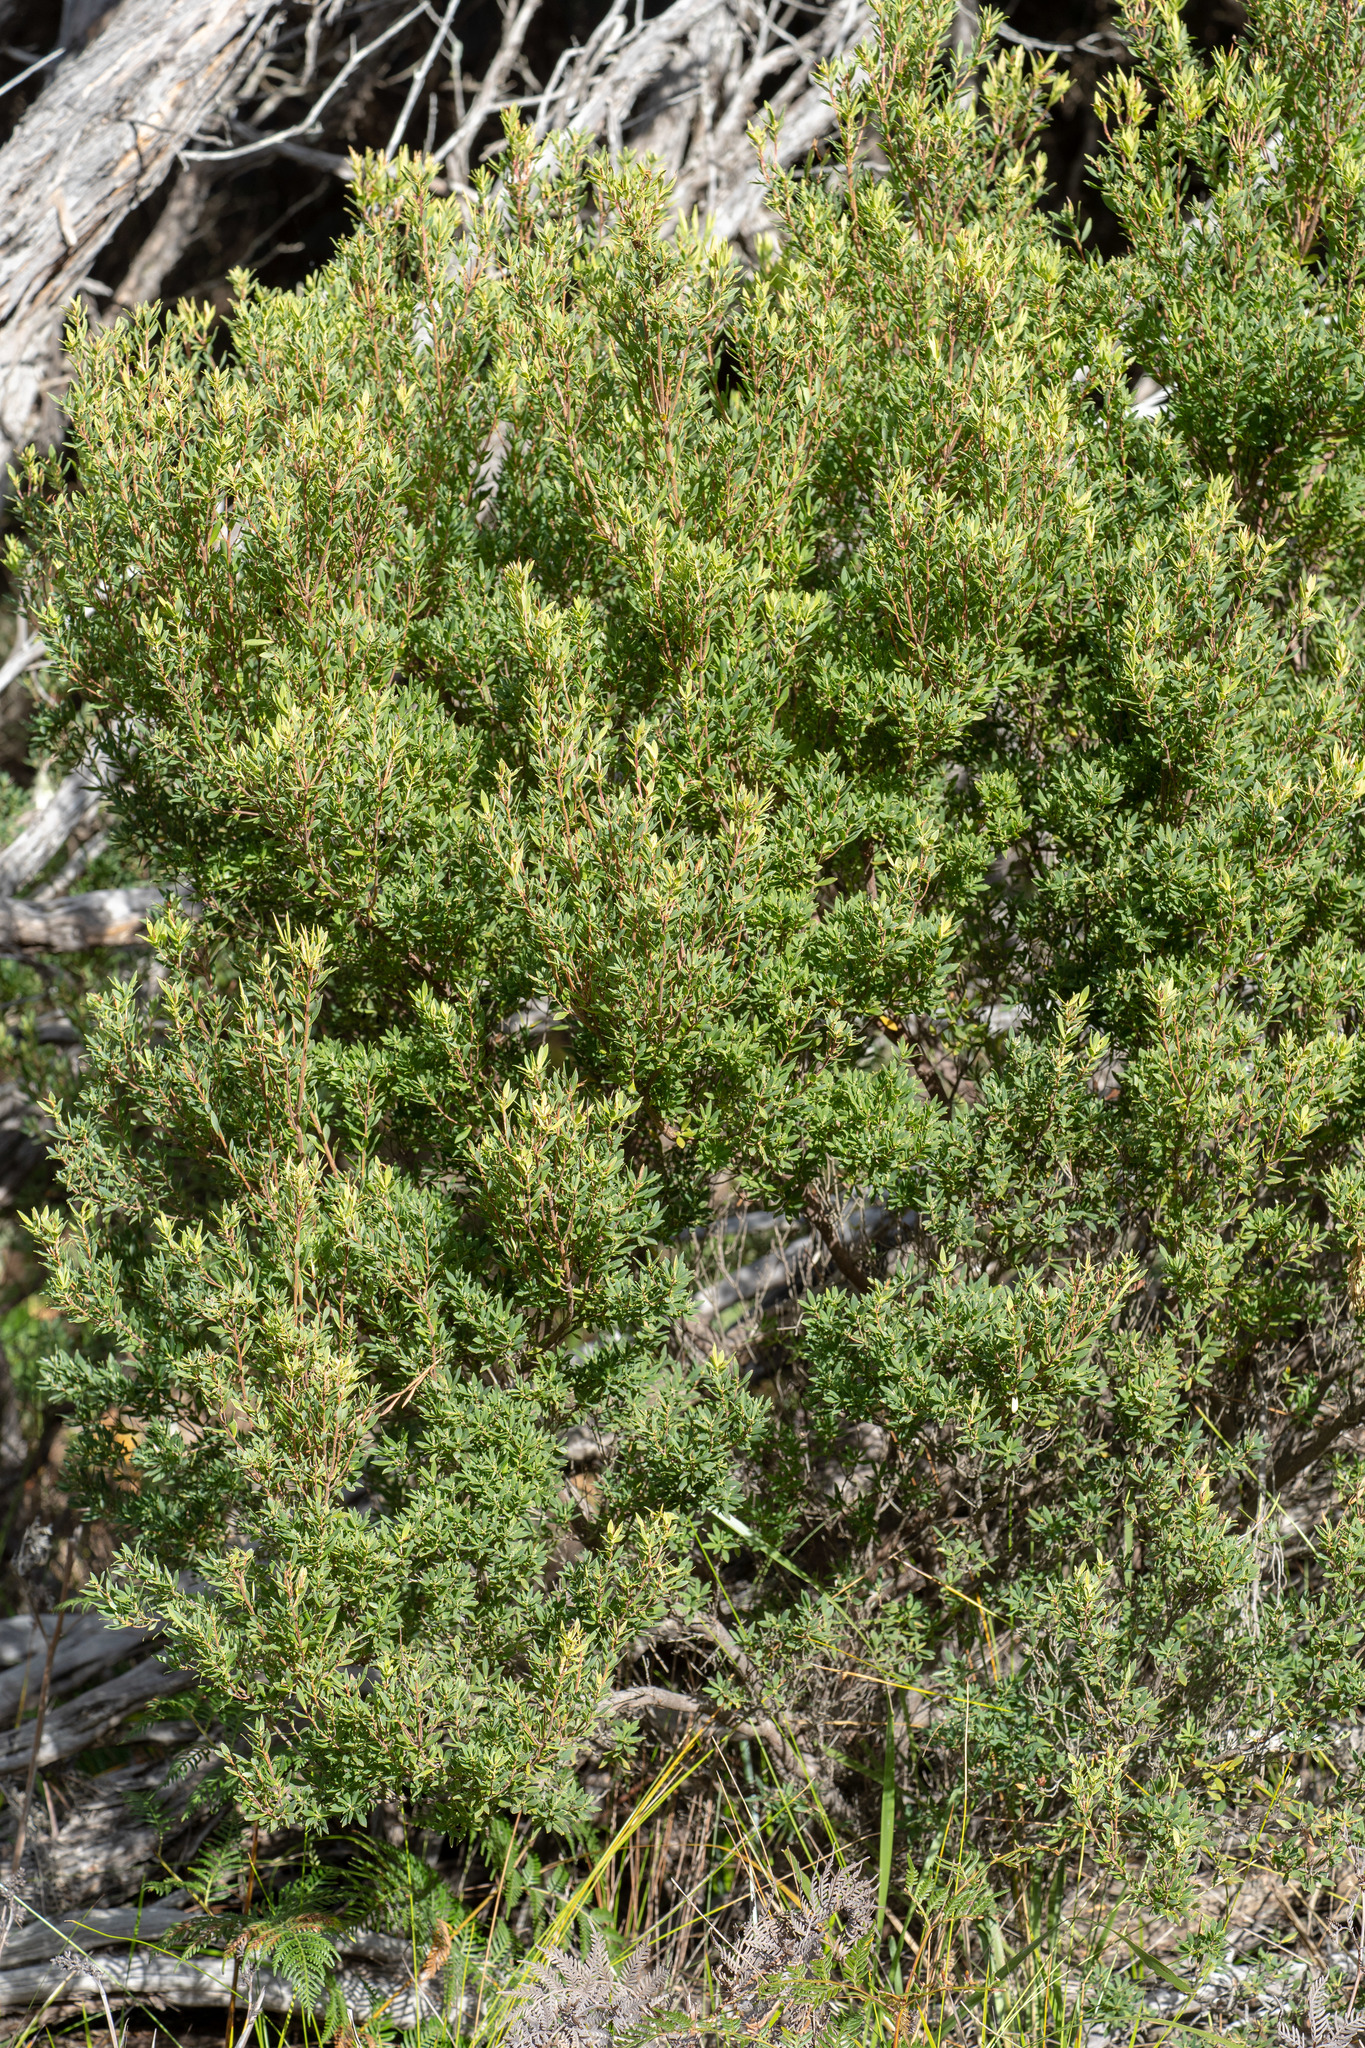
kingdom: Plantae
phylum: Tracheophyta
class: Magnoliopsida
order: Ericales
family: Ericaceae
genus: Leptecophylla
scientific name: Leptecophylla parvifolia
